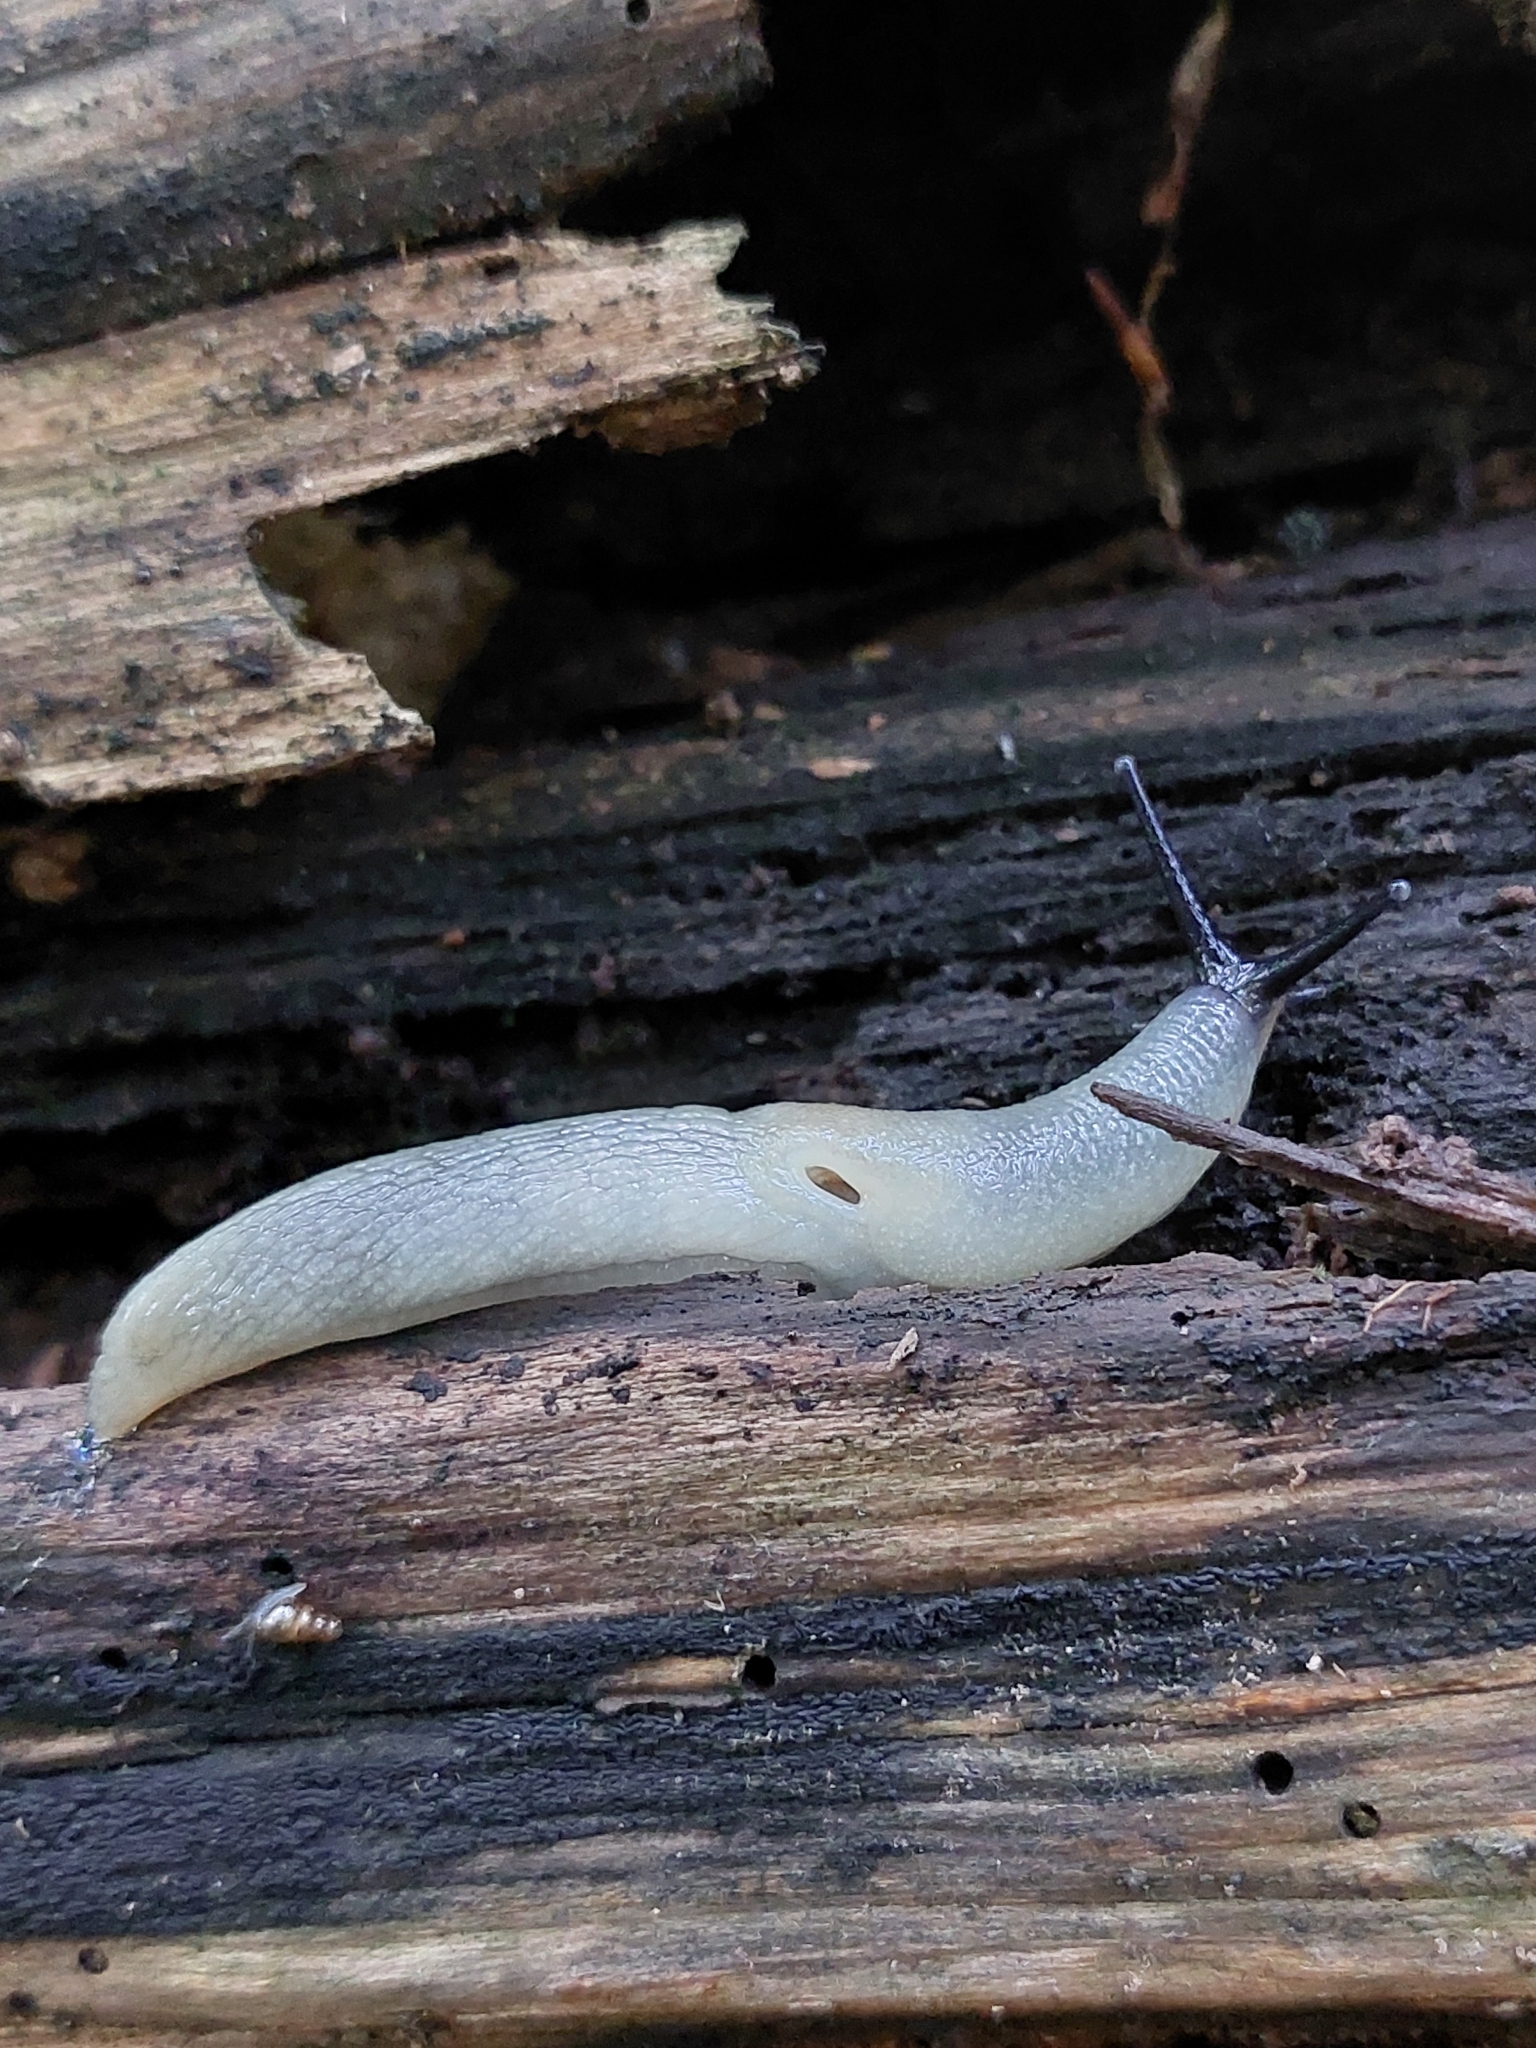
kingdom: Animalia
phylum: Mollusca
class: Gastropoda
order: Stylommatophora
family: Agriolimacidae
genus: Krynickillus
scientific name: Krynickillus melanocephalus
